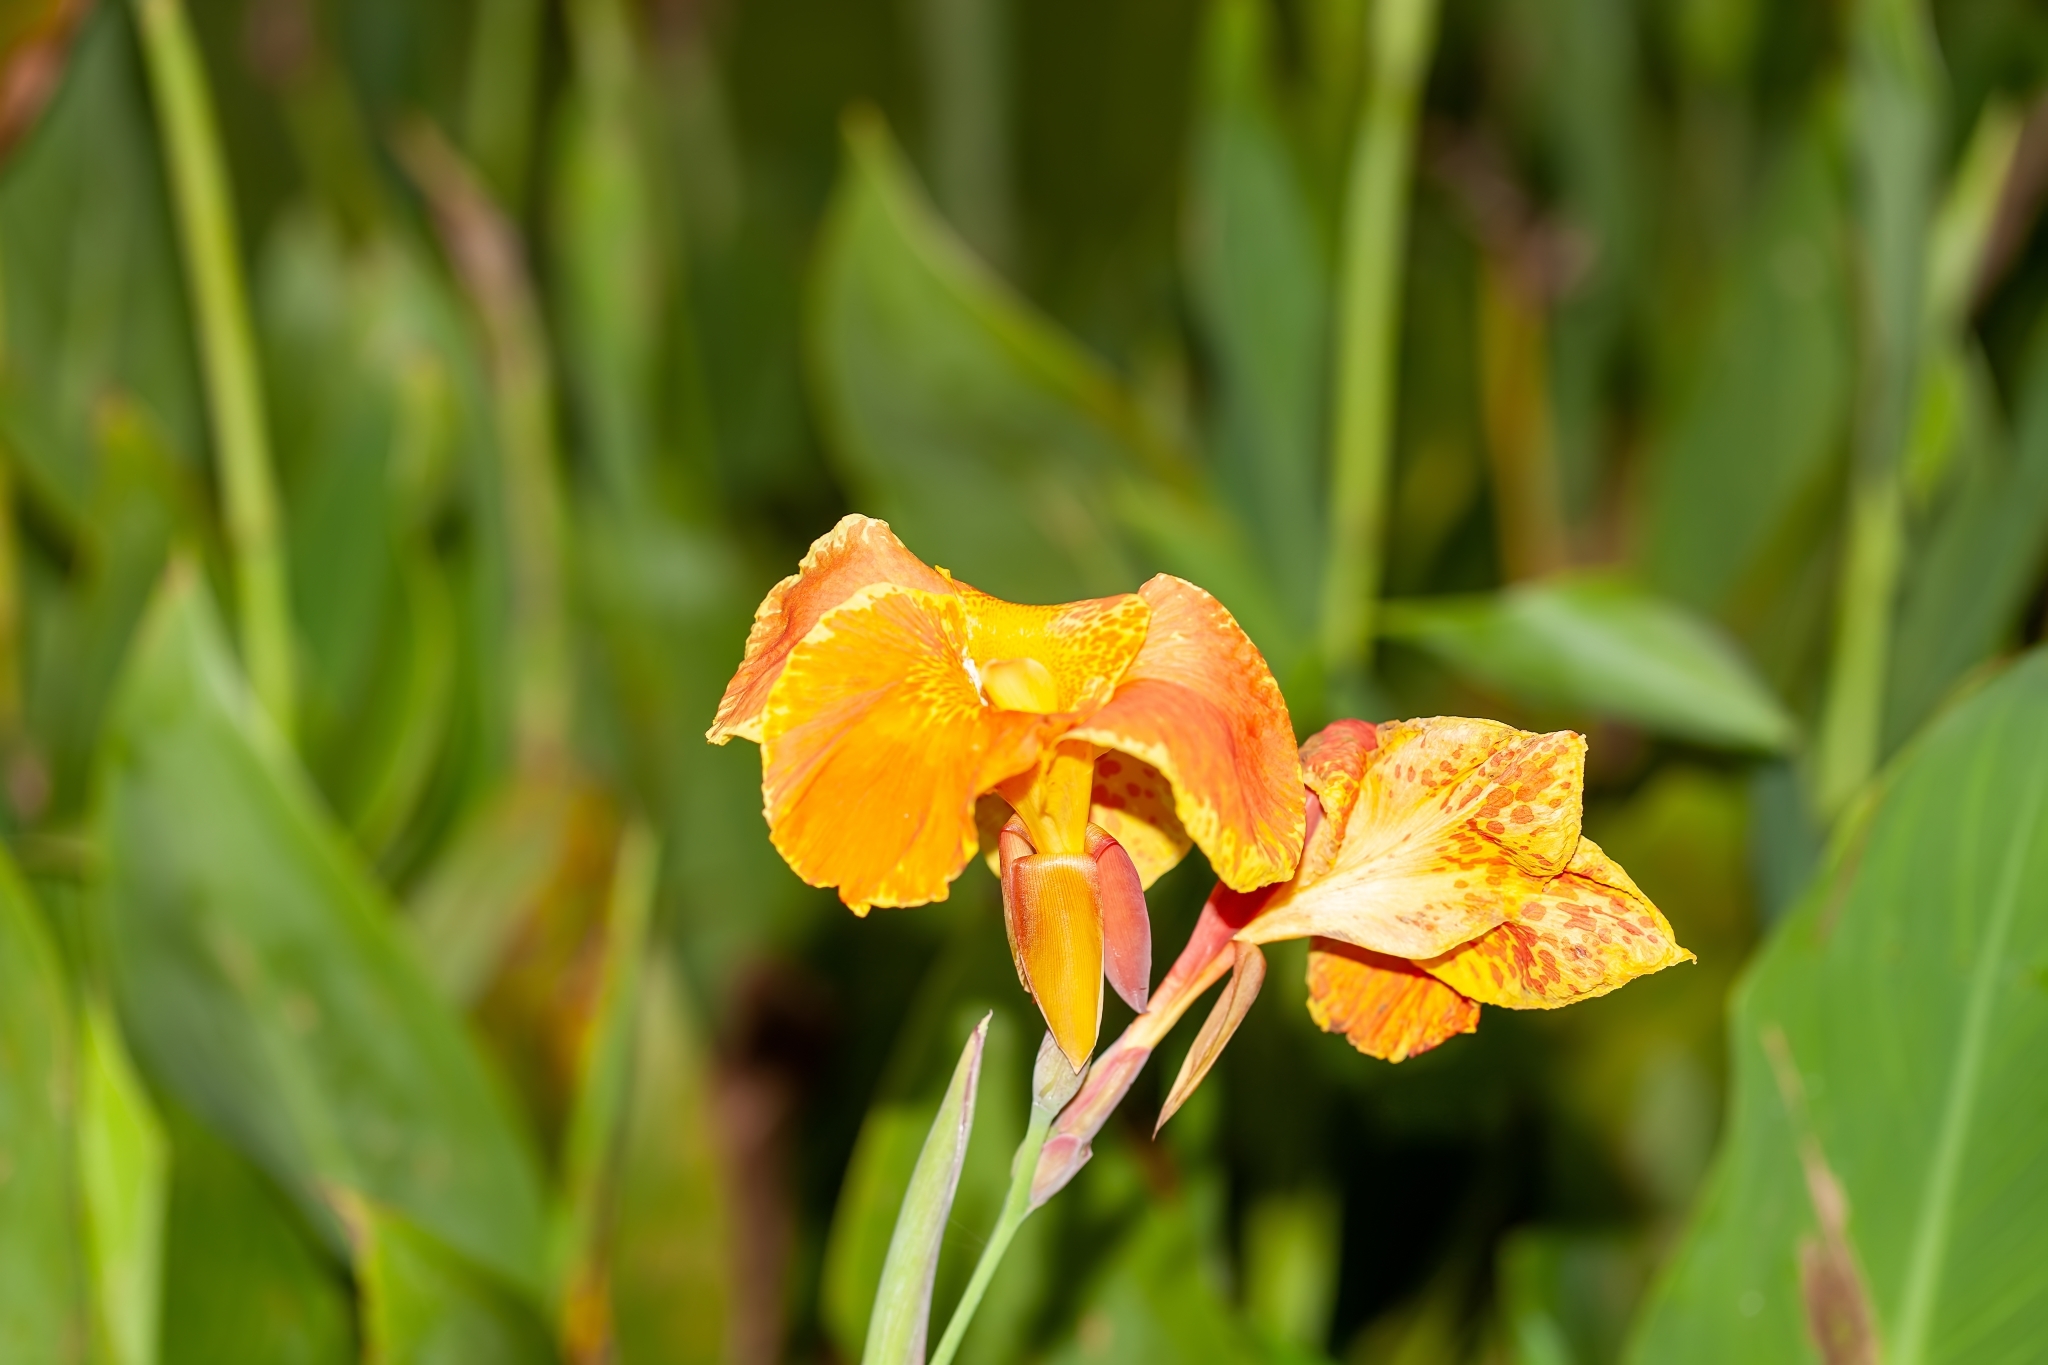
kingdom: Plantae
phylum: Tracheophyta
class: Liliopsida
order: Zingiberales
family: Cannaceae
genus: Canna
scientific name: Canna hybrida
